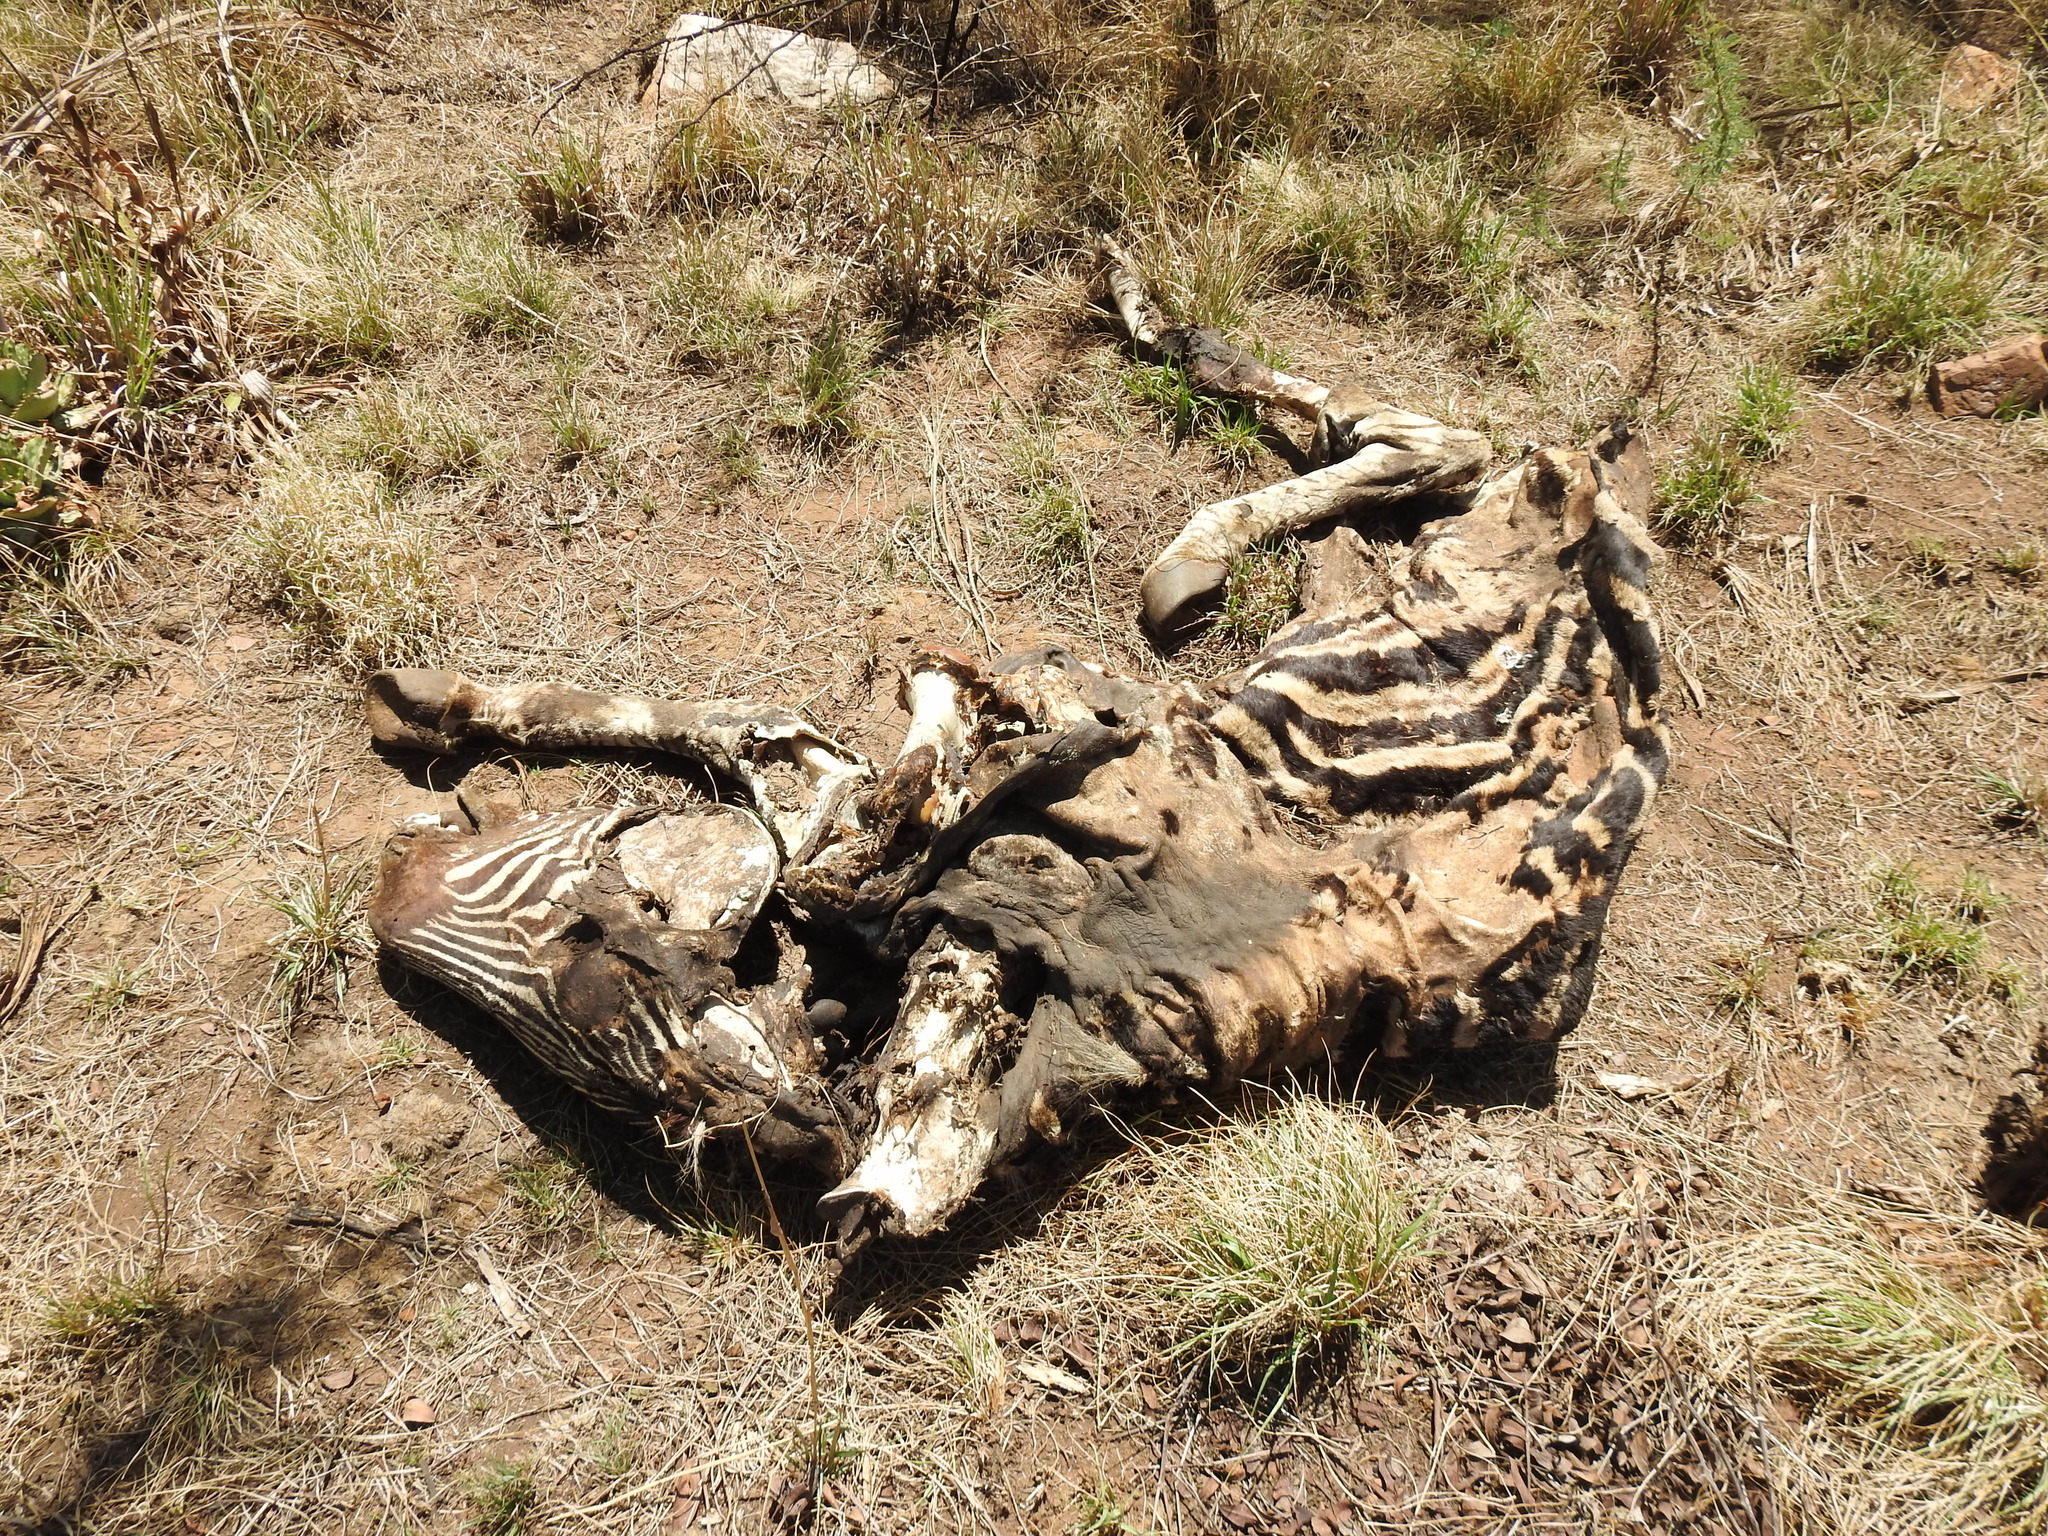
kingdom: Animalia
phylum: Chordata
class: Mammalia
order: Perissodactyla
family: Equidae
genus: Equus
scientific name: Equus quagga
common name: Plains zebra
